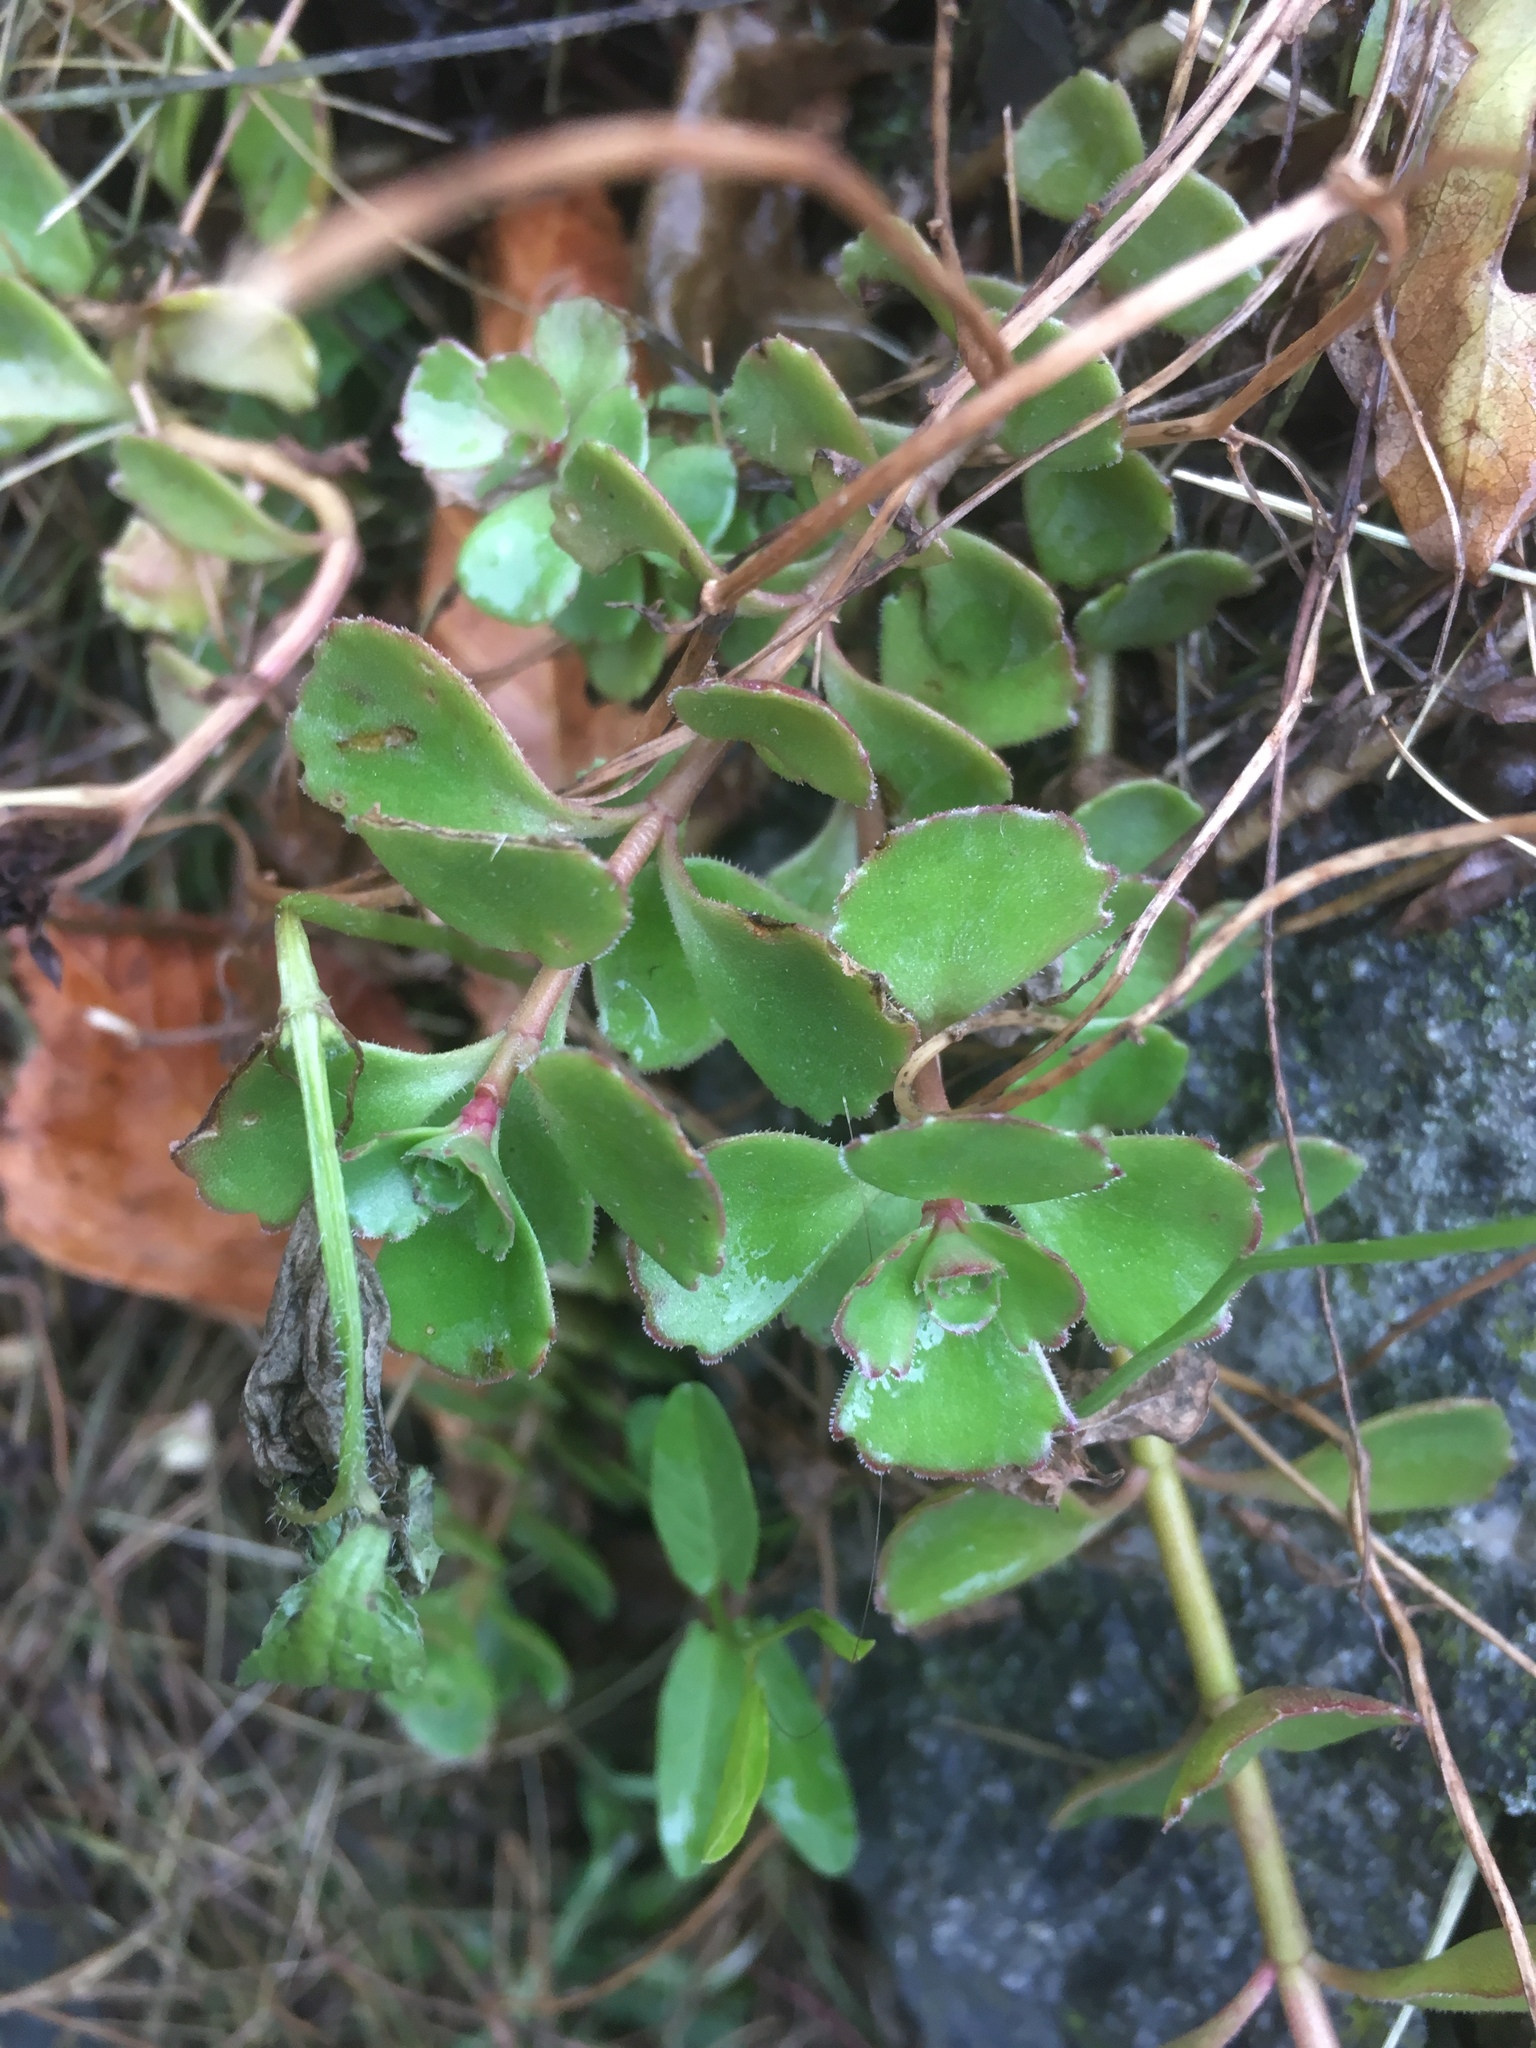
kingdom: Plantae
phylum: Tracheophyta
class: Magnoliopsida
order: Saxifragales
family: Crassulaceae
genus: Phedimus
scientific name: Phedimus spurius
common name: Caucasian stonecrop
